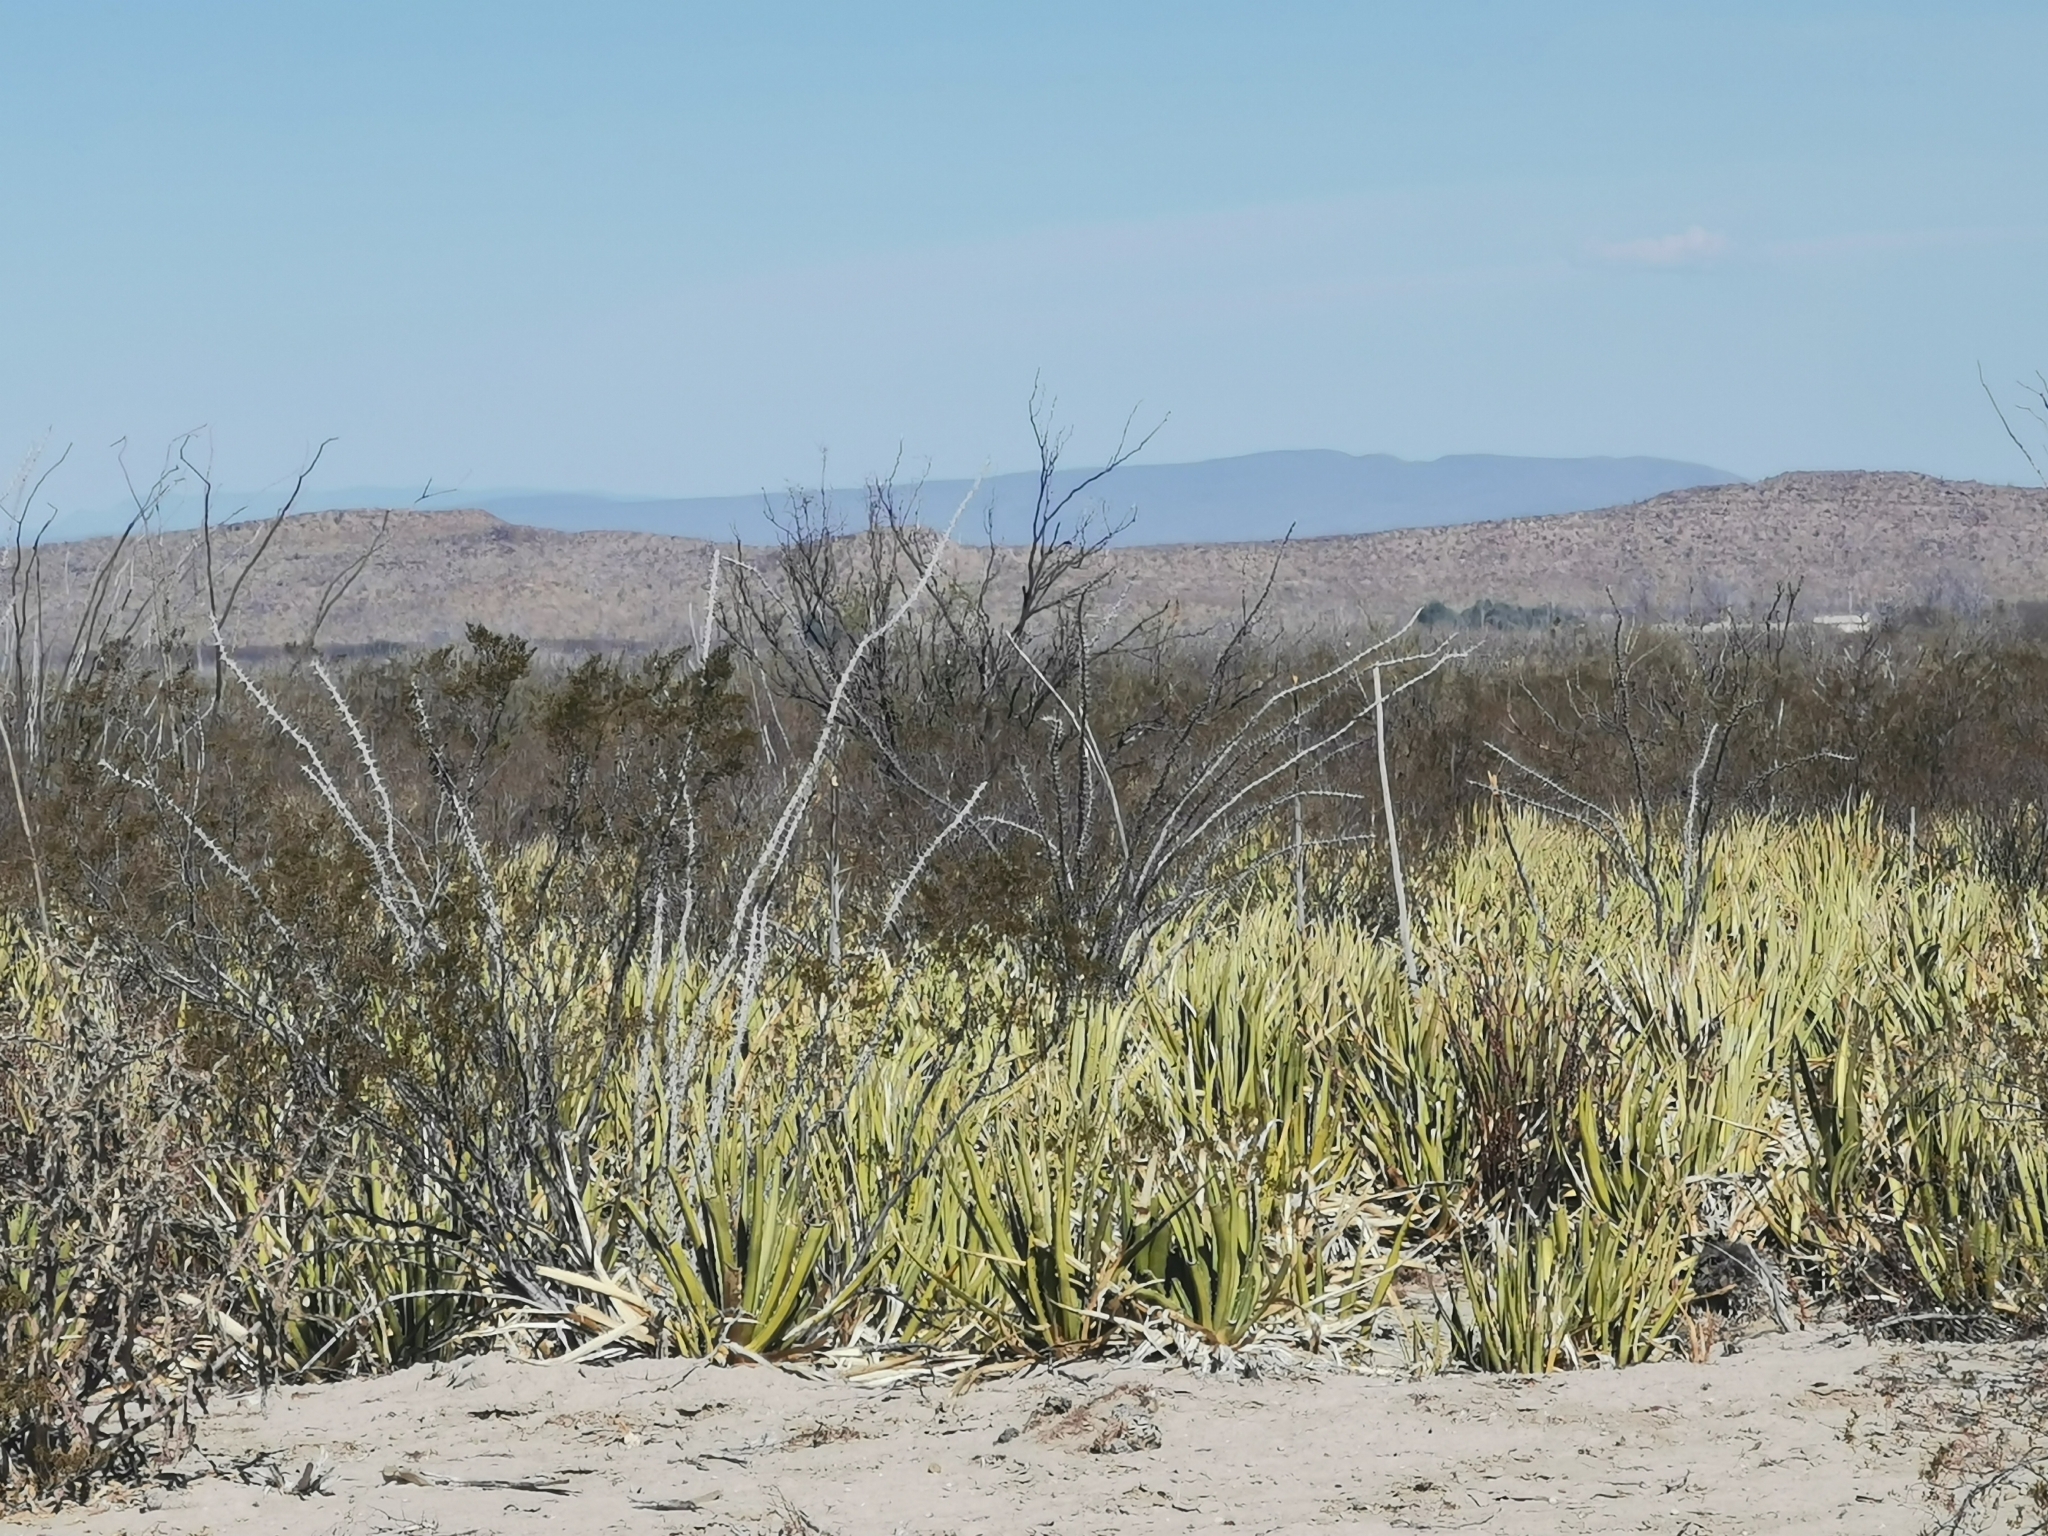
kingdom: Plantae
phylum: Tracheophyta
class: Liliopsida
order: Asparagales
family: Asparagaceae
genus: Agave
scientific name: Agave lechuguilla
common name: Lecheguilla agave
